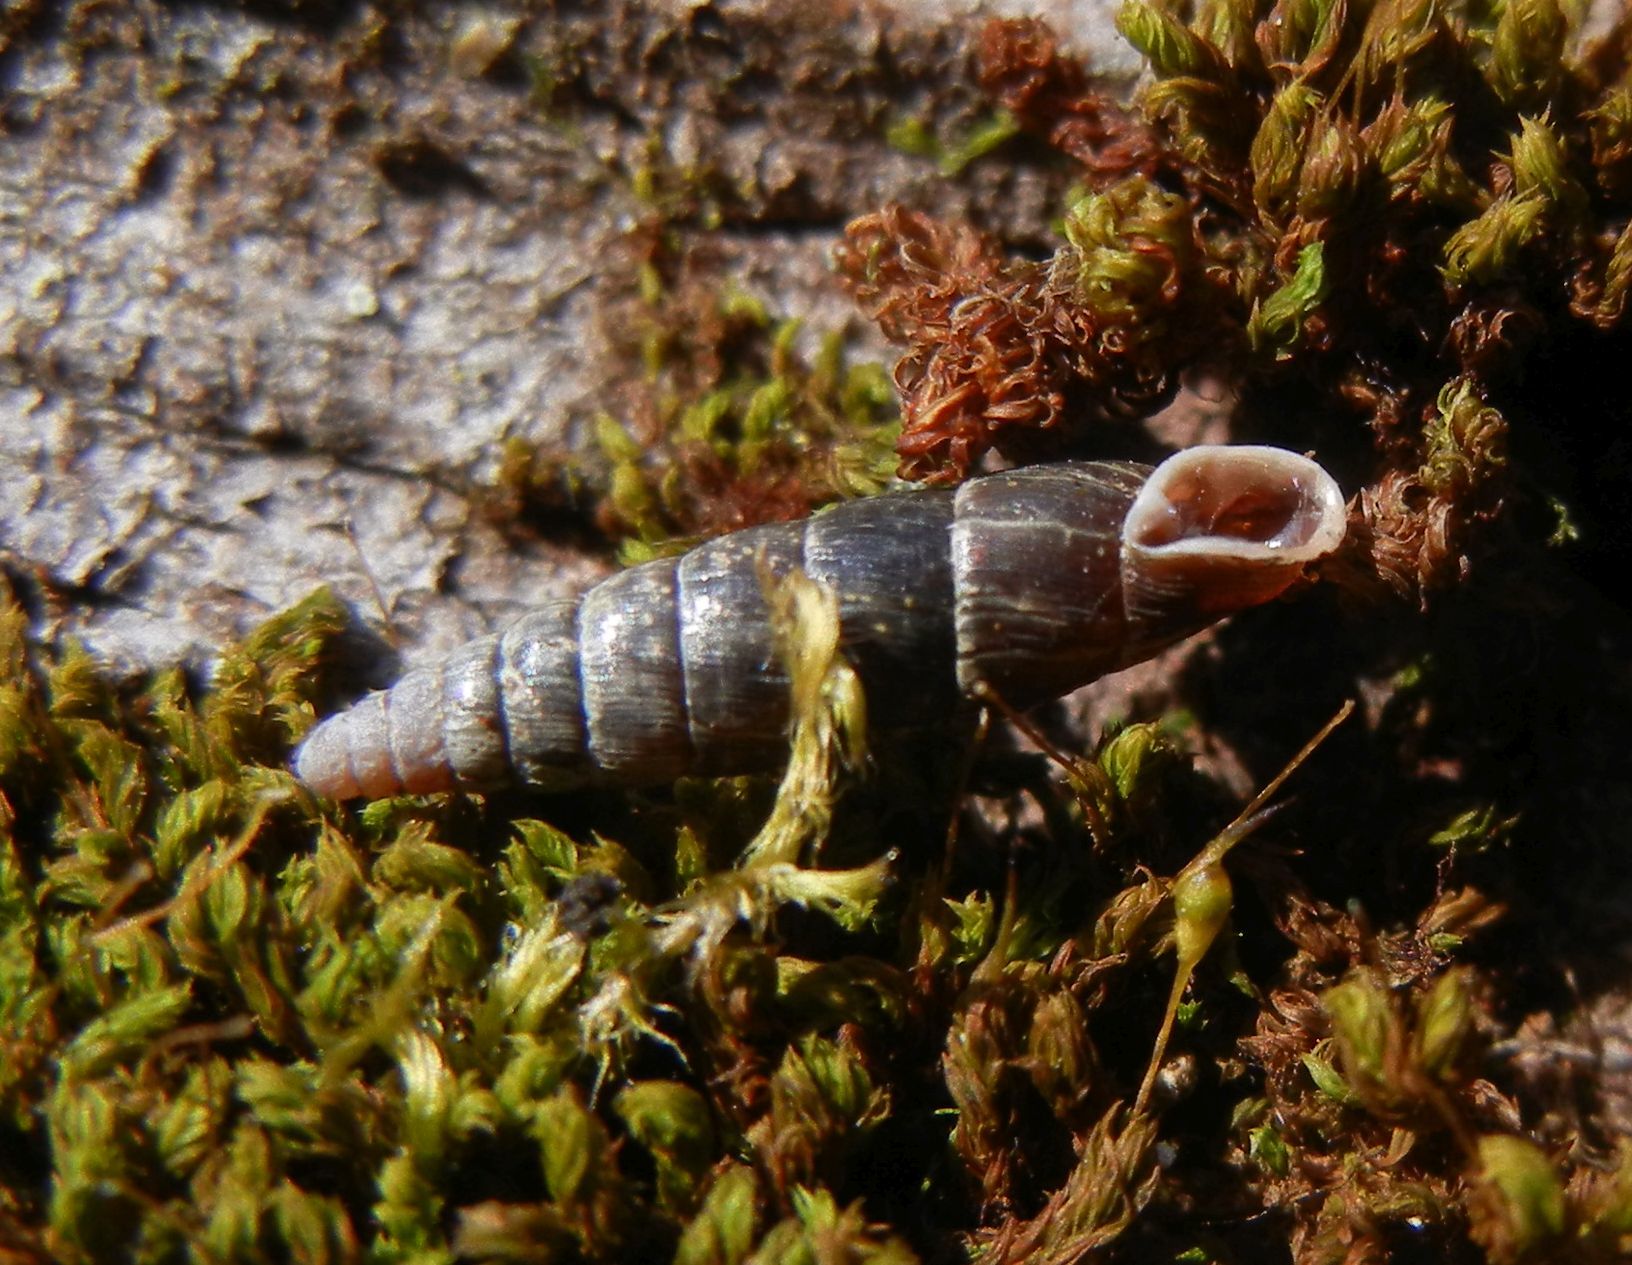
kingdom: Animalia
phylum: Mollusca
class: Gastropoda
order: Stylommatophora
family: Clausiliidae
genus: Clausilia
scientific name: Clausilia bidentata
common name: Two-toothed door snail
